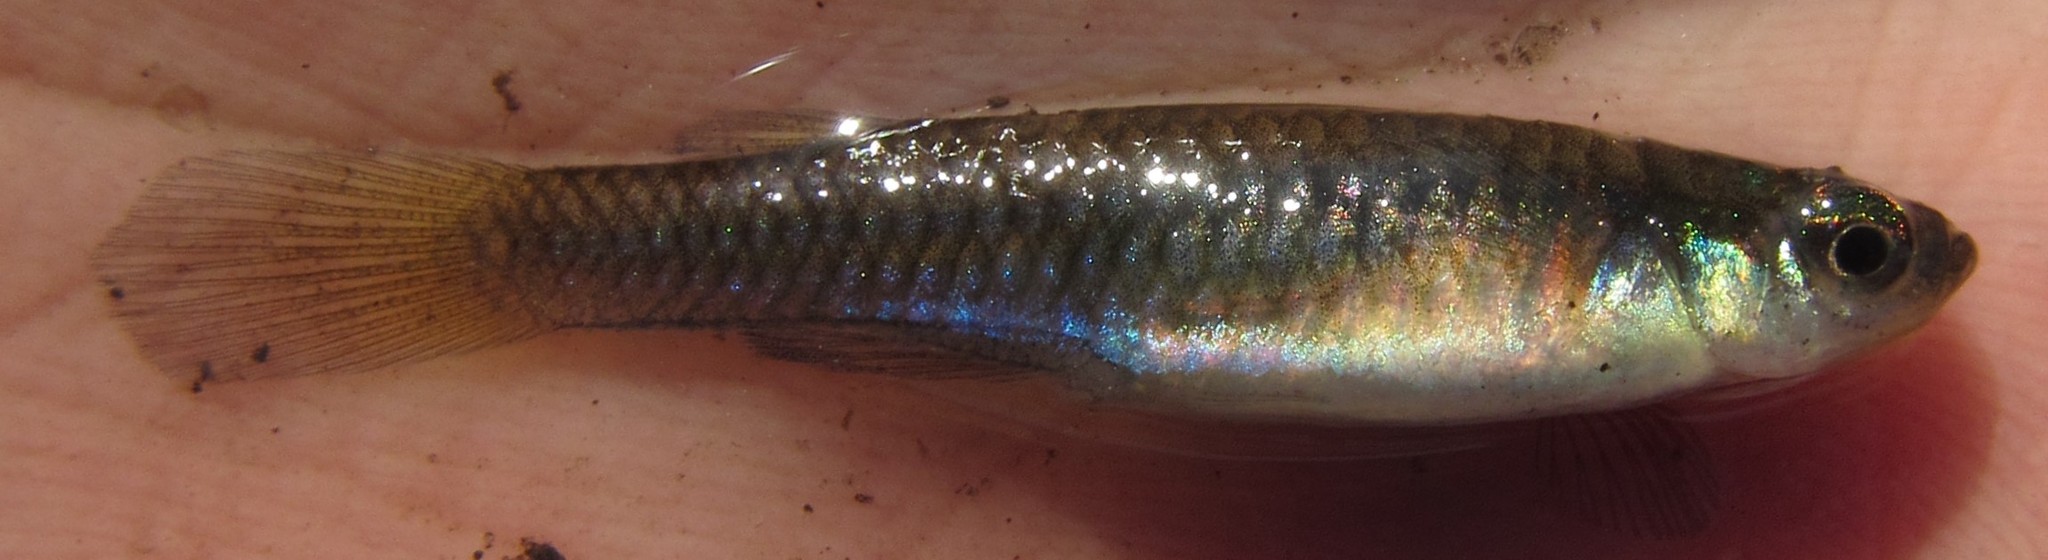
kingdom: Animalia
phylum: Chordata
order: Cyprinodontiformes
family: Poeciliidae
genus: Micropanchax
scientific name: Micropanchax johnstoni
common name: Johnston's topminnow
